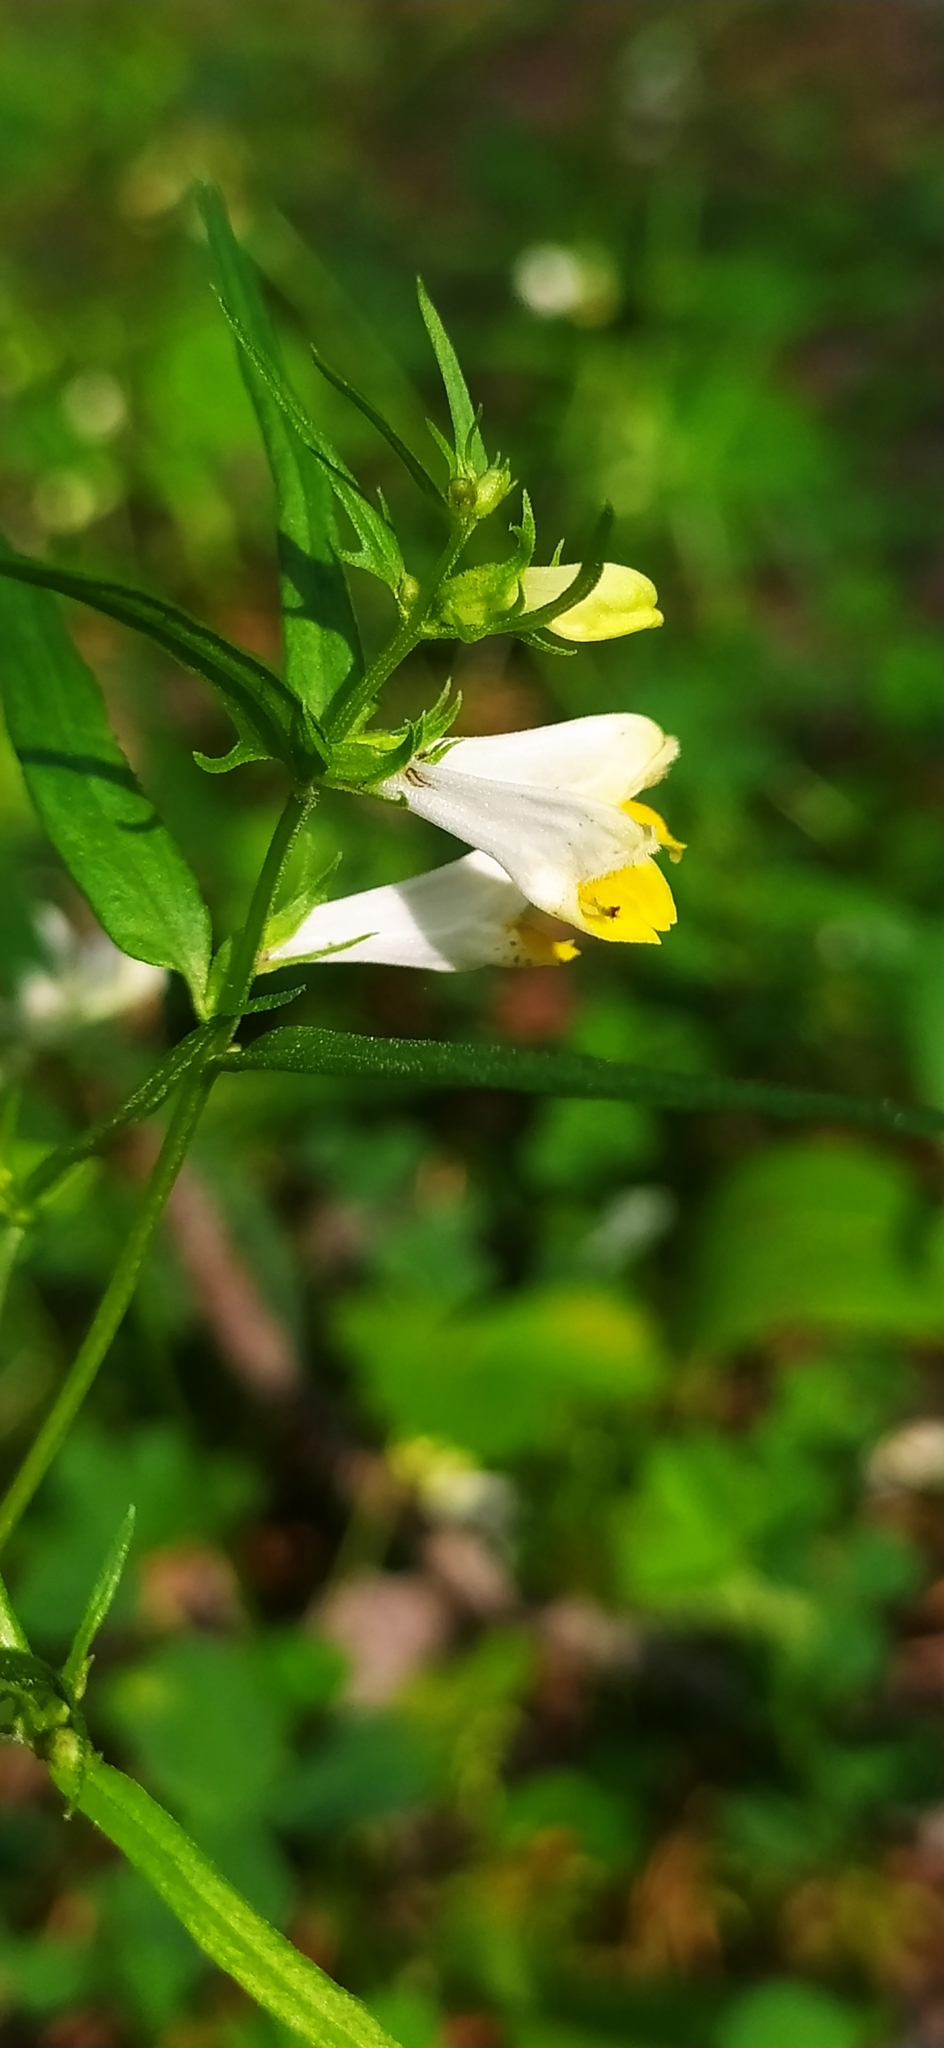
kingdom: Plantae
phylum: Tracheophyta
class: Magnoliopsida
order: Lamiales
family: Orobanchaceae
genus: Melampyrum
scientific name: Melampyrum pratense
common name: Common cow-wheat
